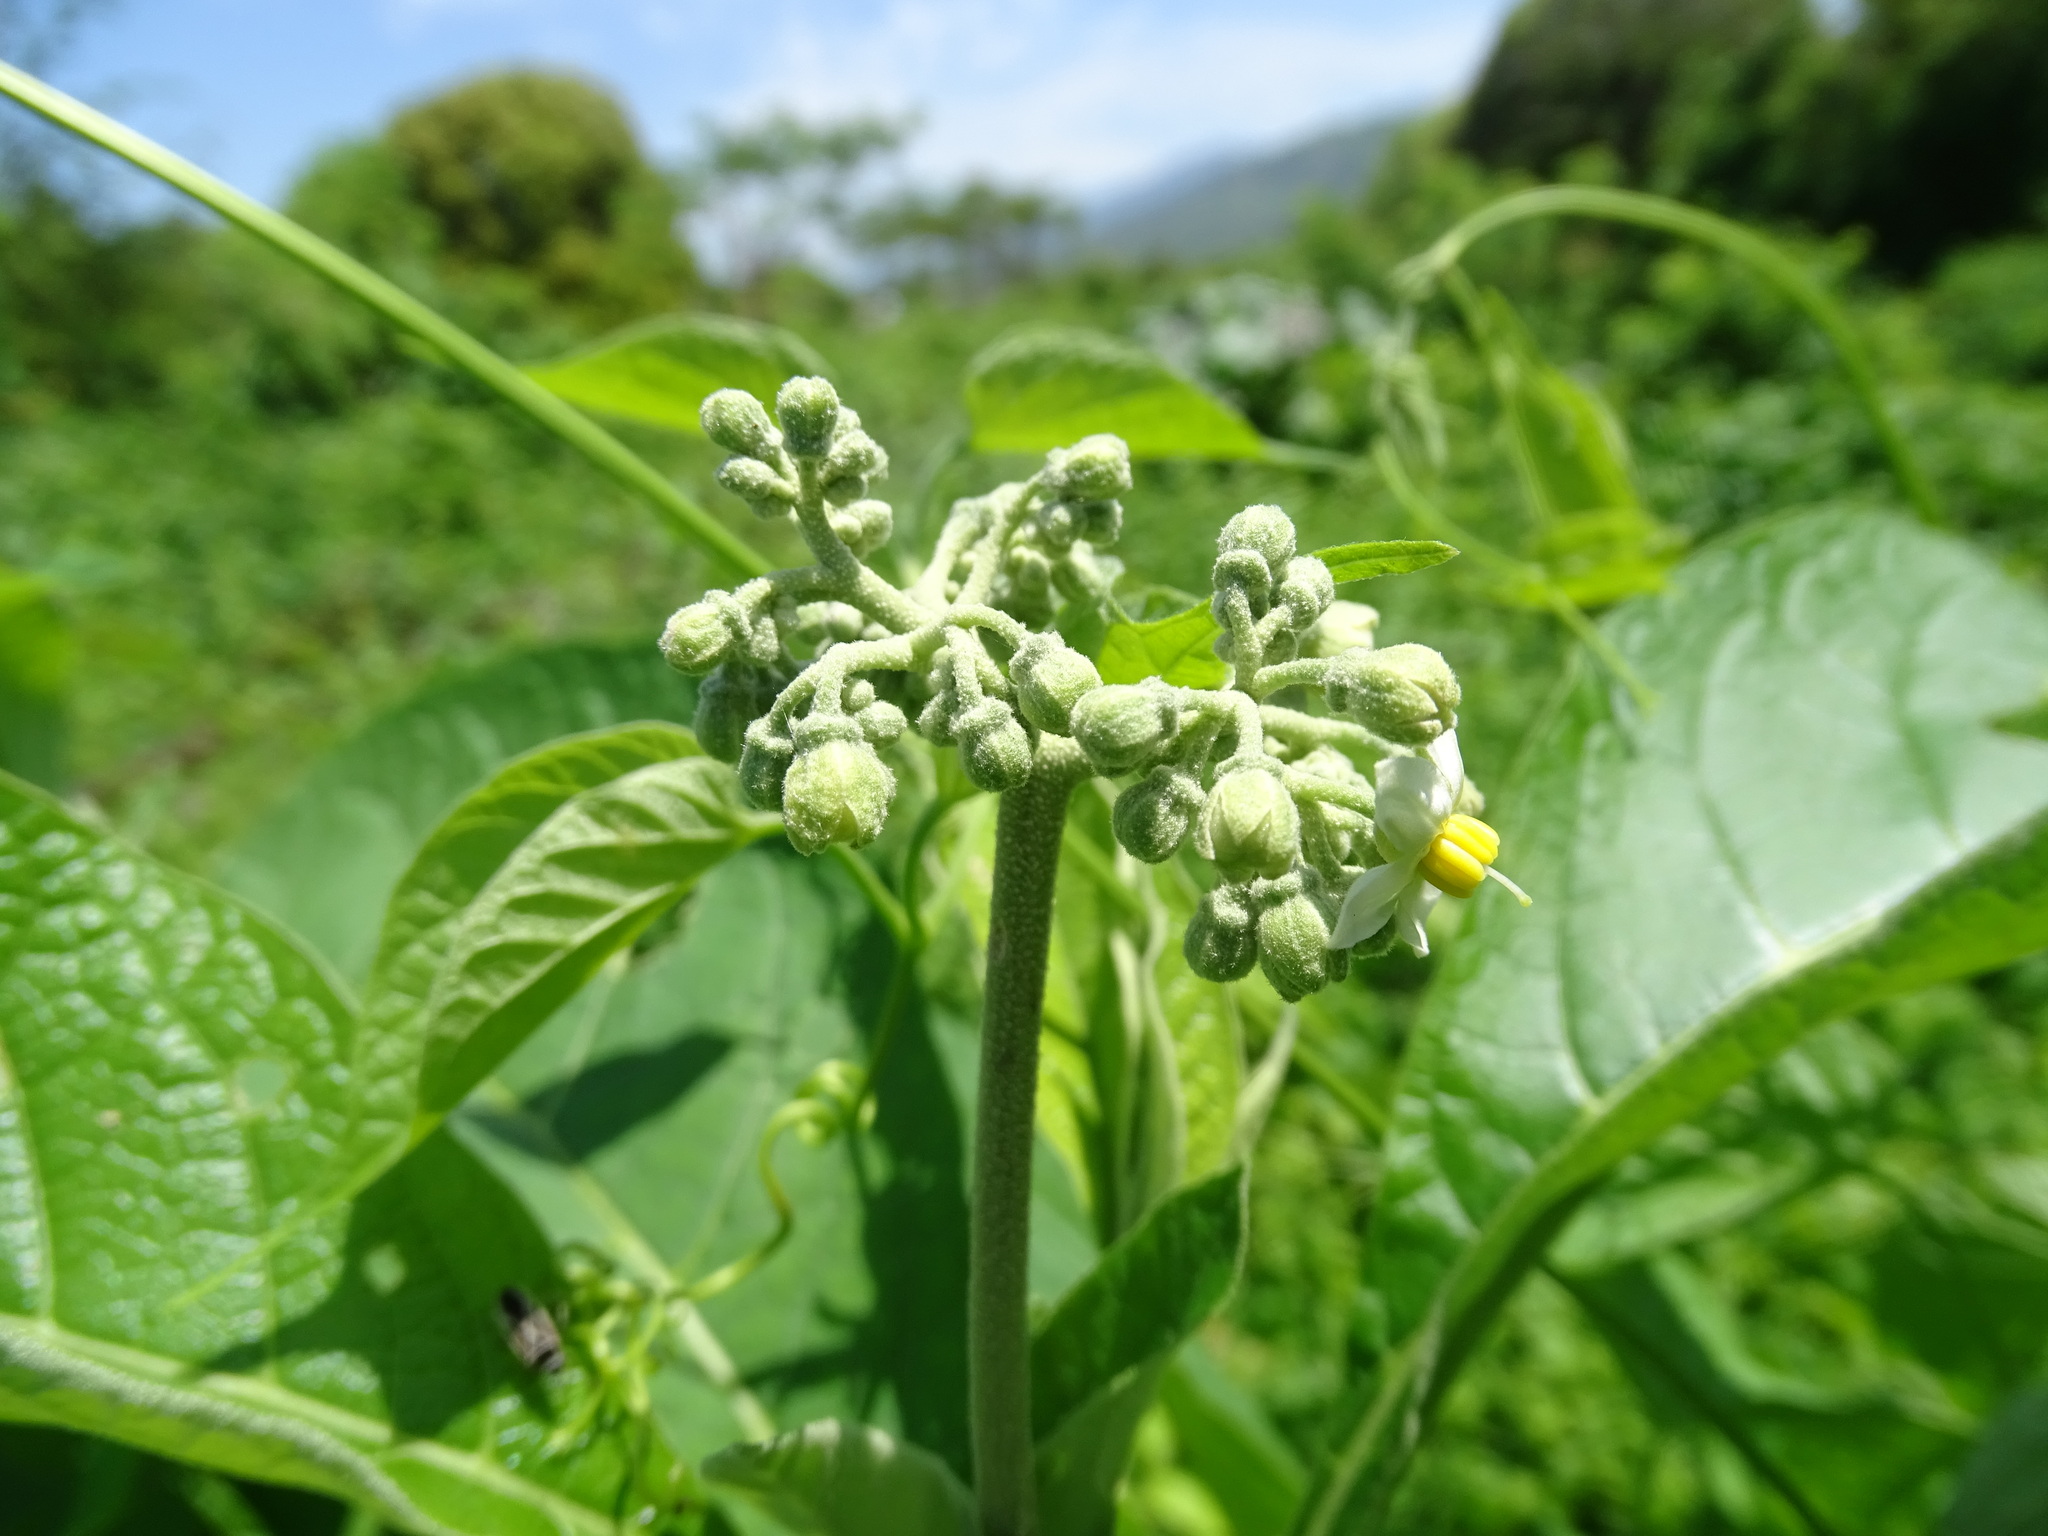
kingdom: Plantae
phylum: Tracheophyta
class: Magnoliopsida
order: Solanales
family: Solanaceae
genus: Solanum
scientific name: Solanum hazenii
